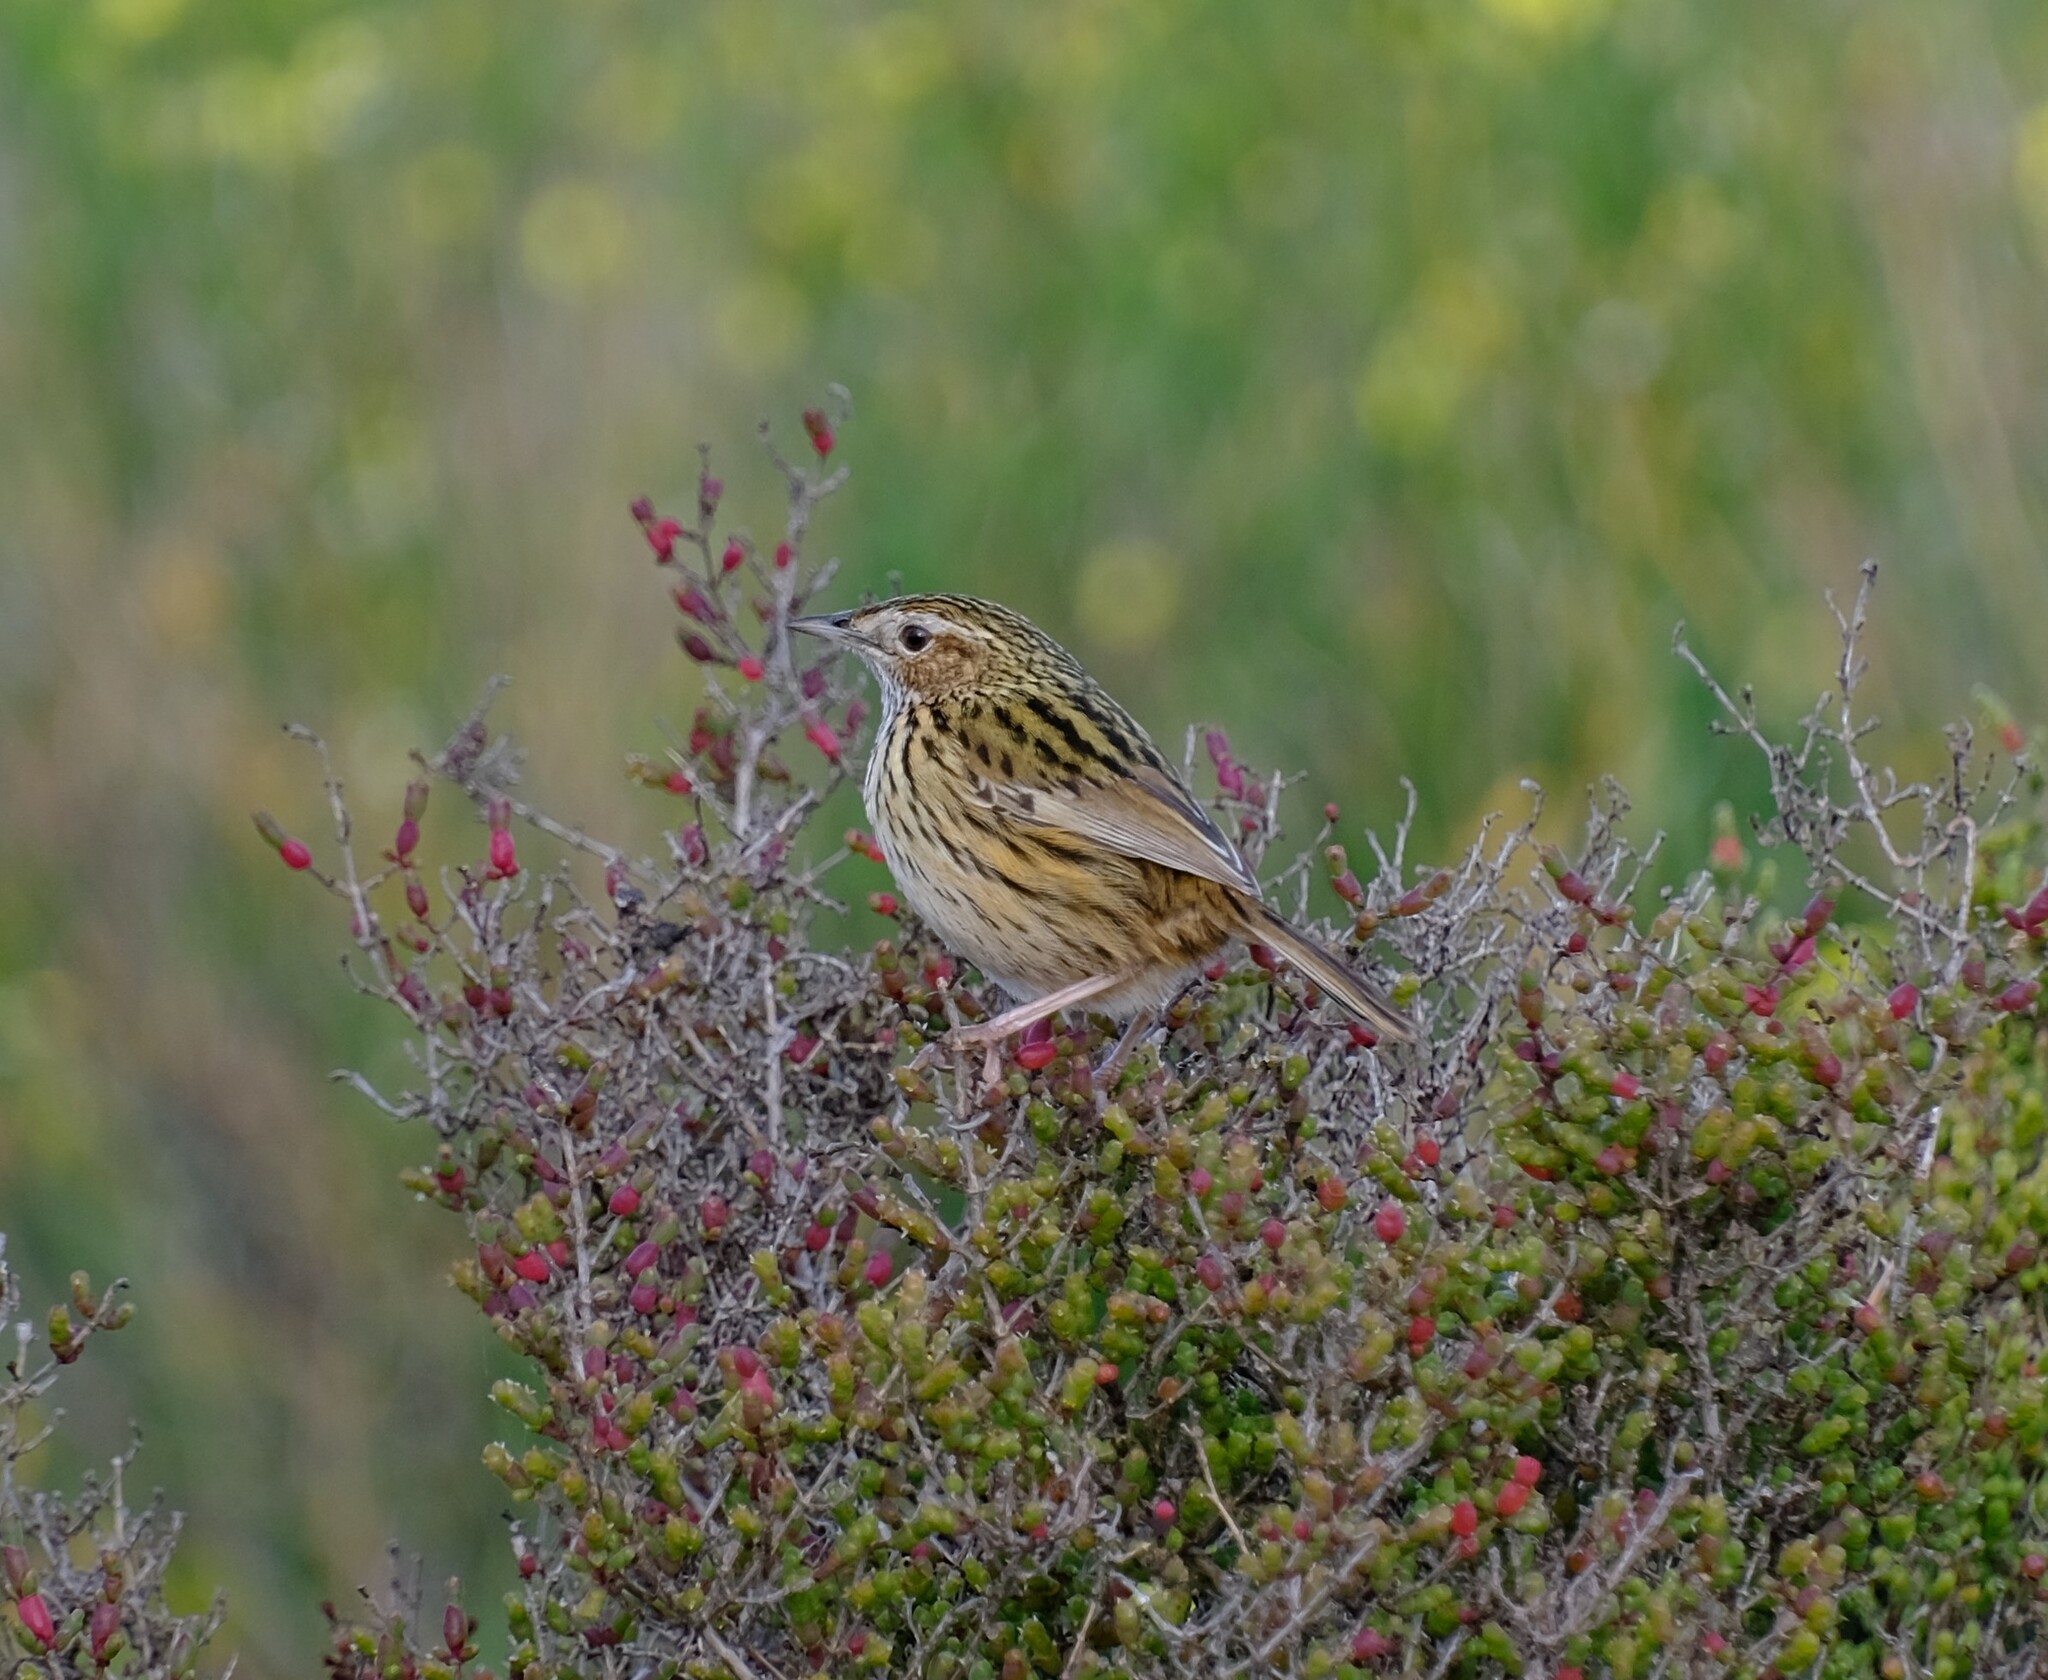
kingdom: Animalia
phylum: Chordata
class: Aves
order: Passeriformes
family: Acanthizidae
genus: Calamanthus
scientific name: Calamanthus fuliginosus
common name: Striated fieldwren
